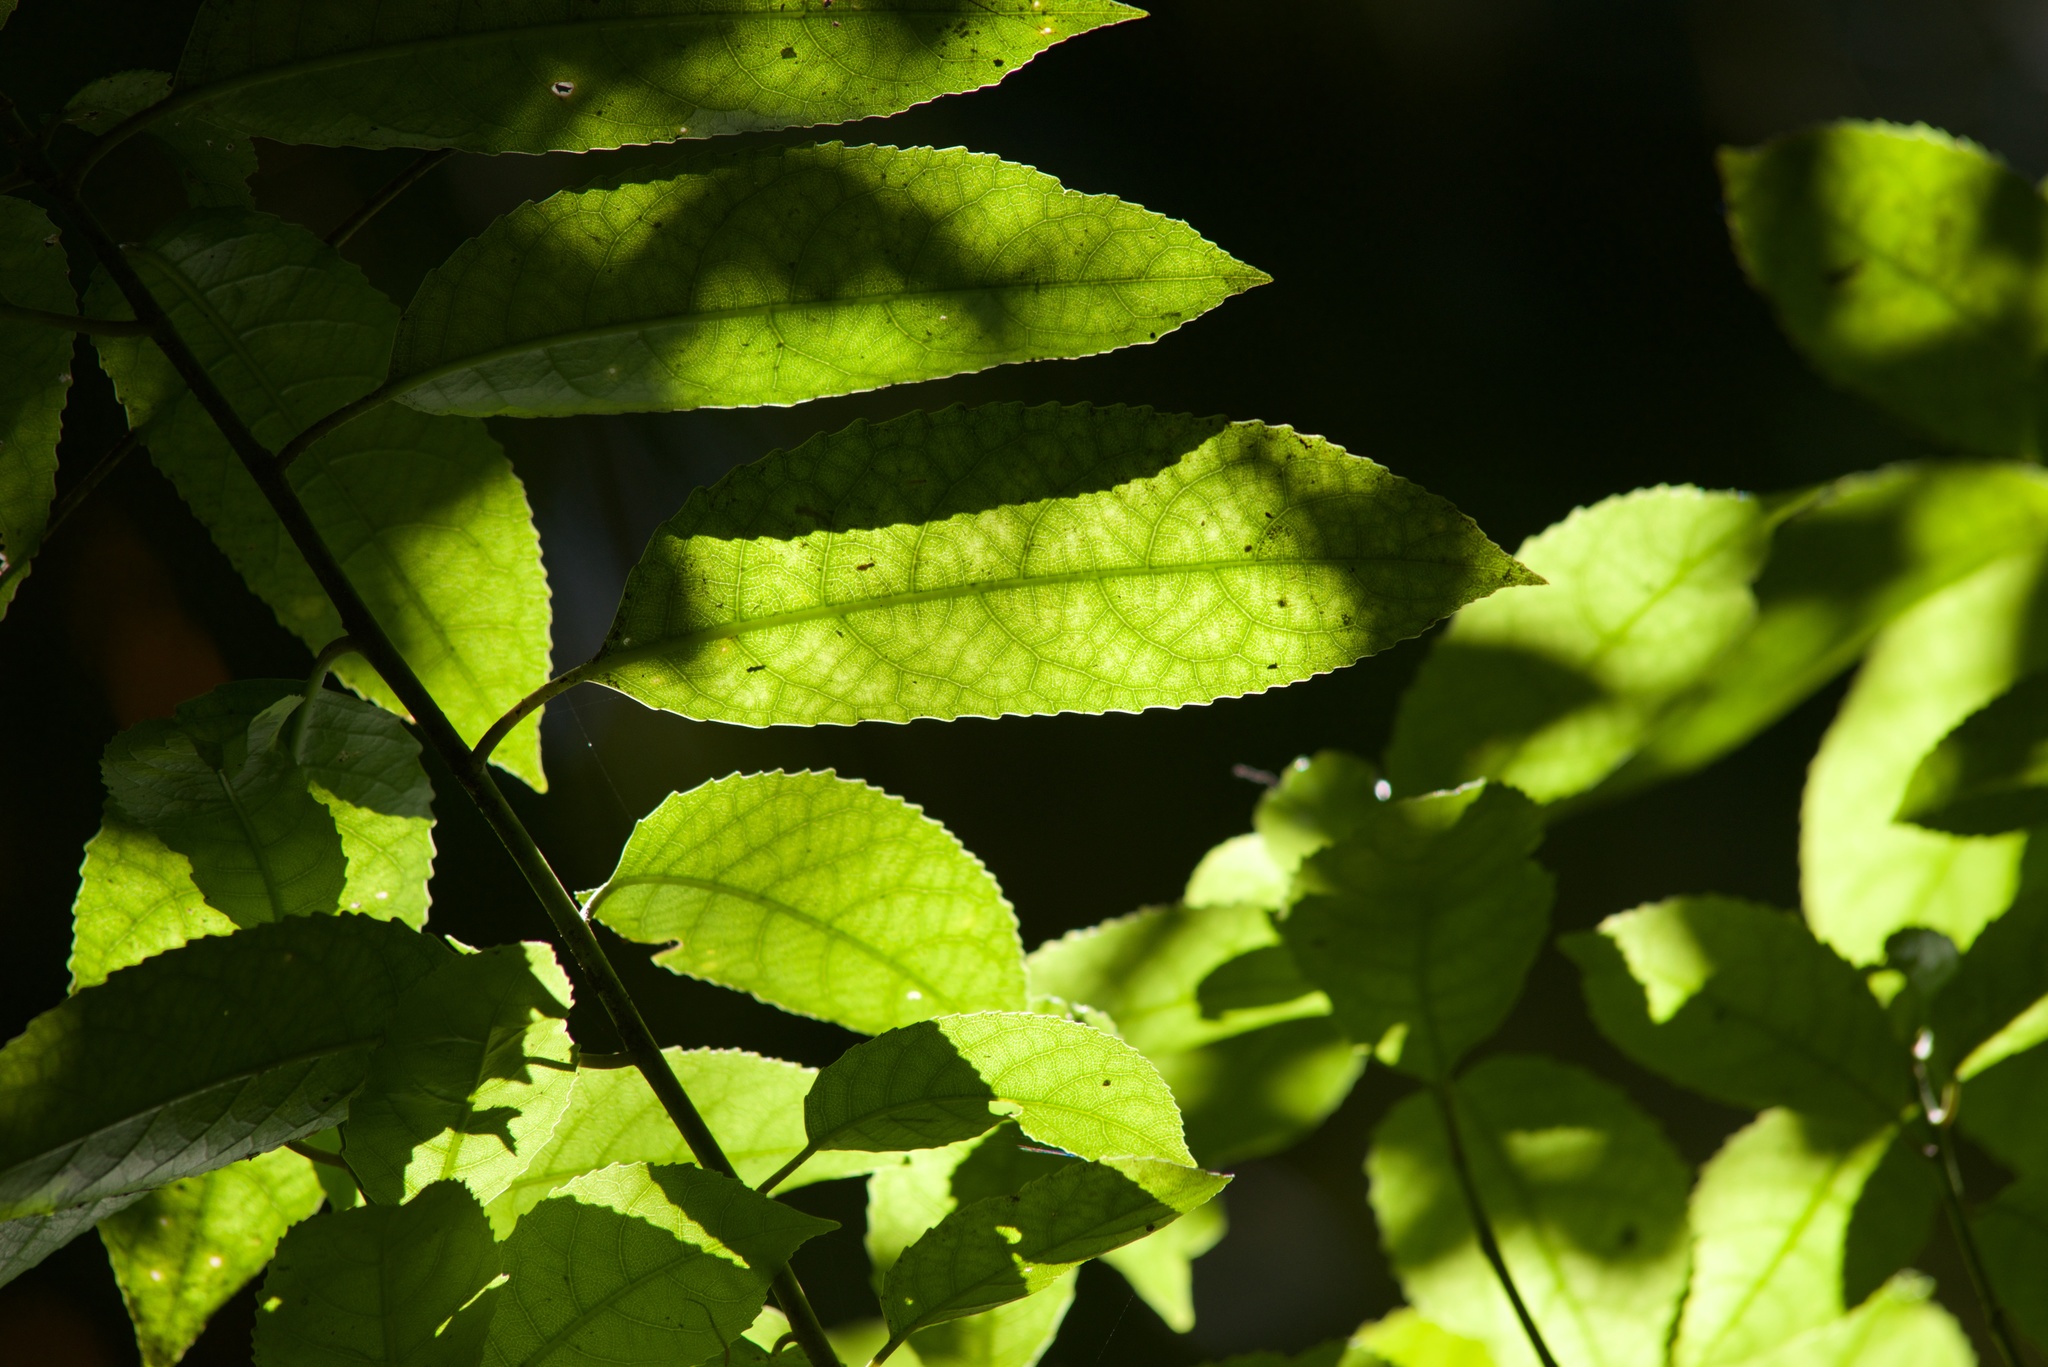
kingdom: Plantae
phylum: Tracheophyta
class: Magnoliopsida
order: Malpighiales
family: Violaceae
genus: Melicytus
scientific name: Melicytus ramiflorus
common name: Mahoe
